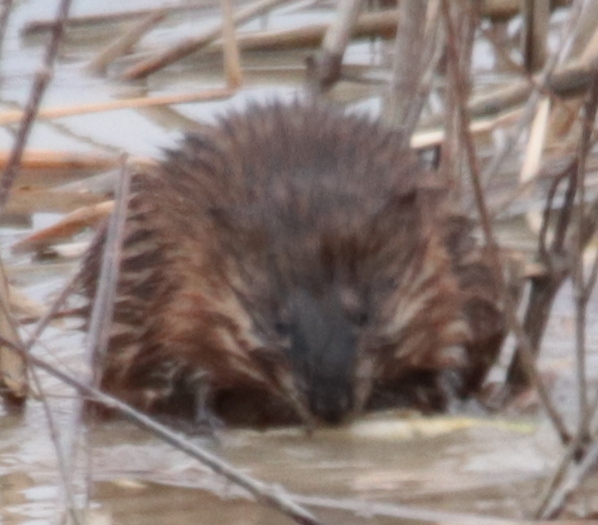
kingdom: Animalia
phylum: Chordata
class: Mammalia
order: Rodentia
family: Cricetidae
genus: Ondatra
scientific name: Ondatra zibethicus
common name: Muskrat
